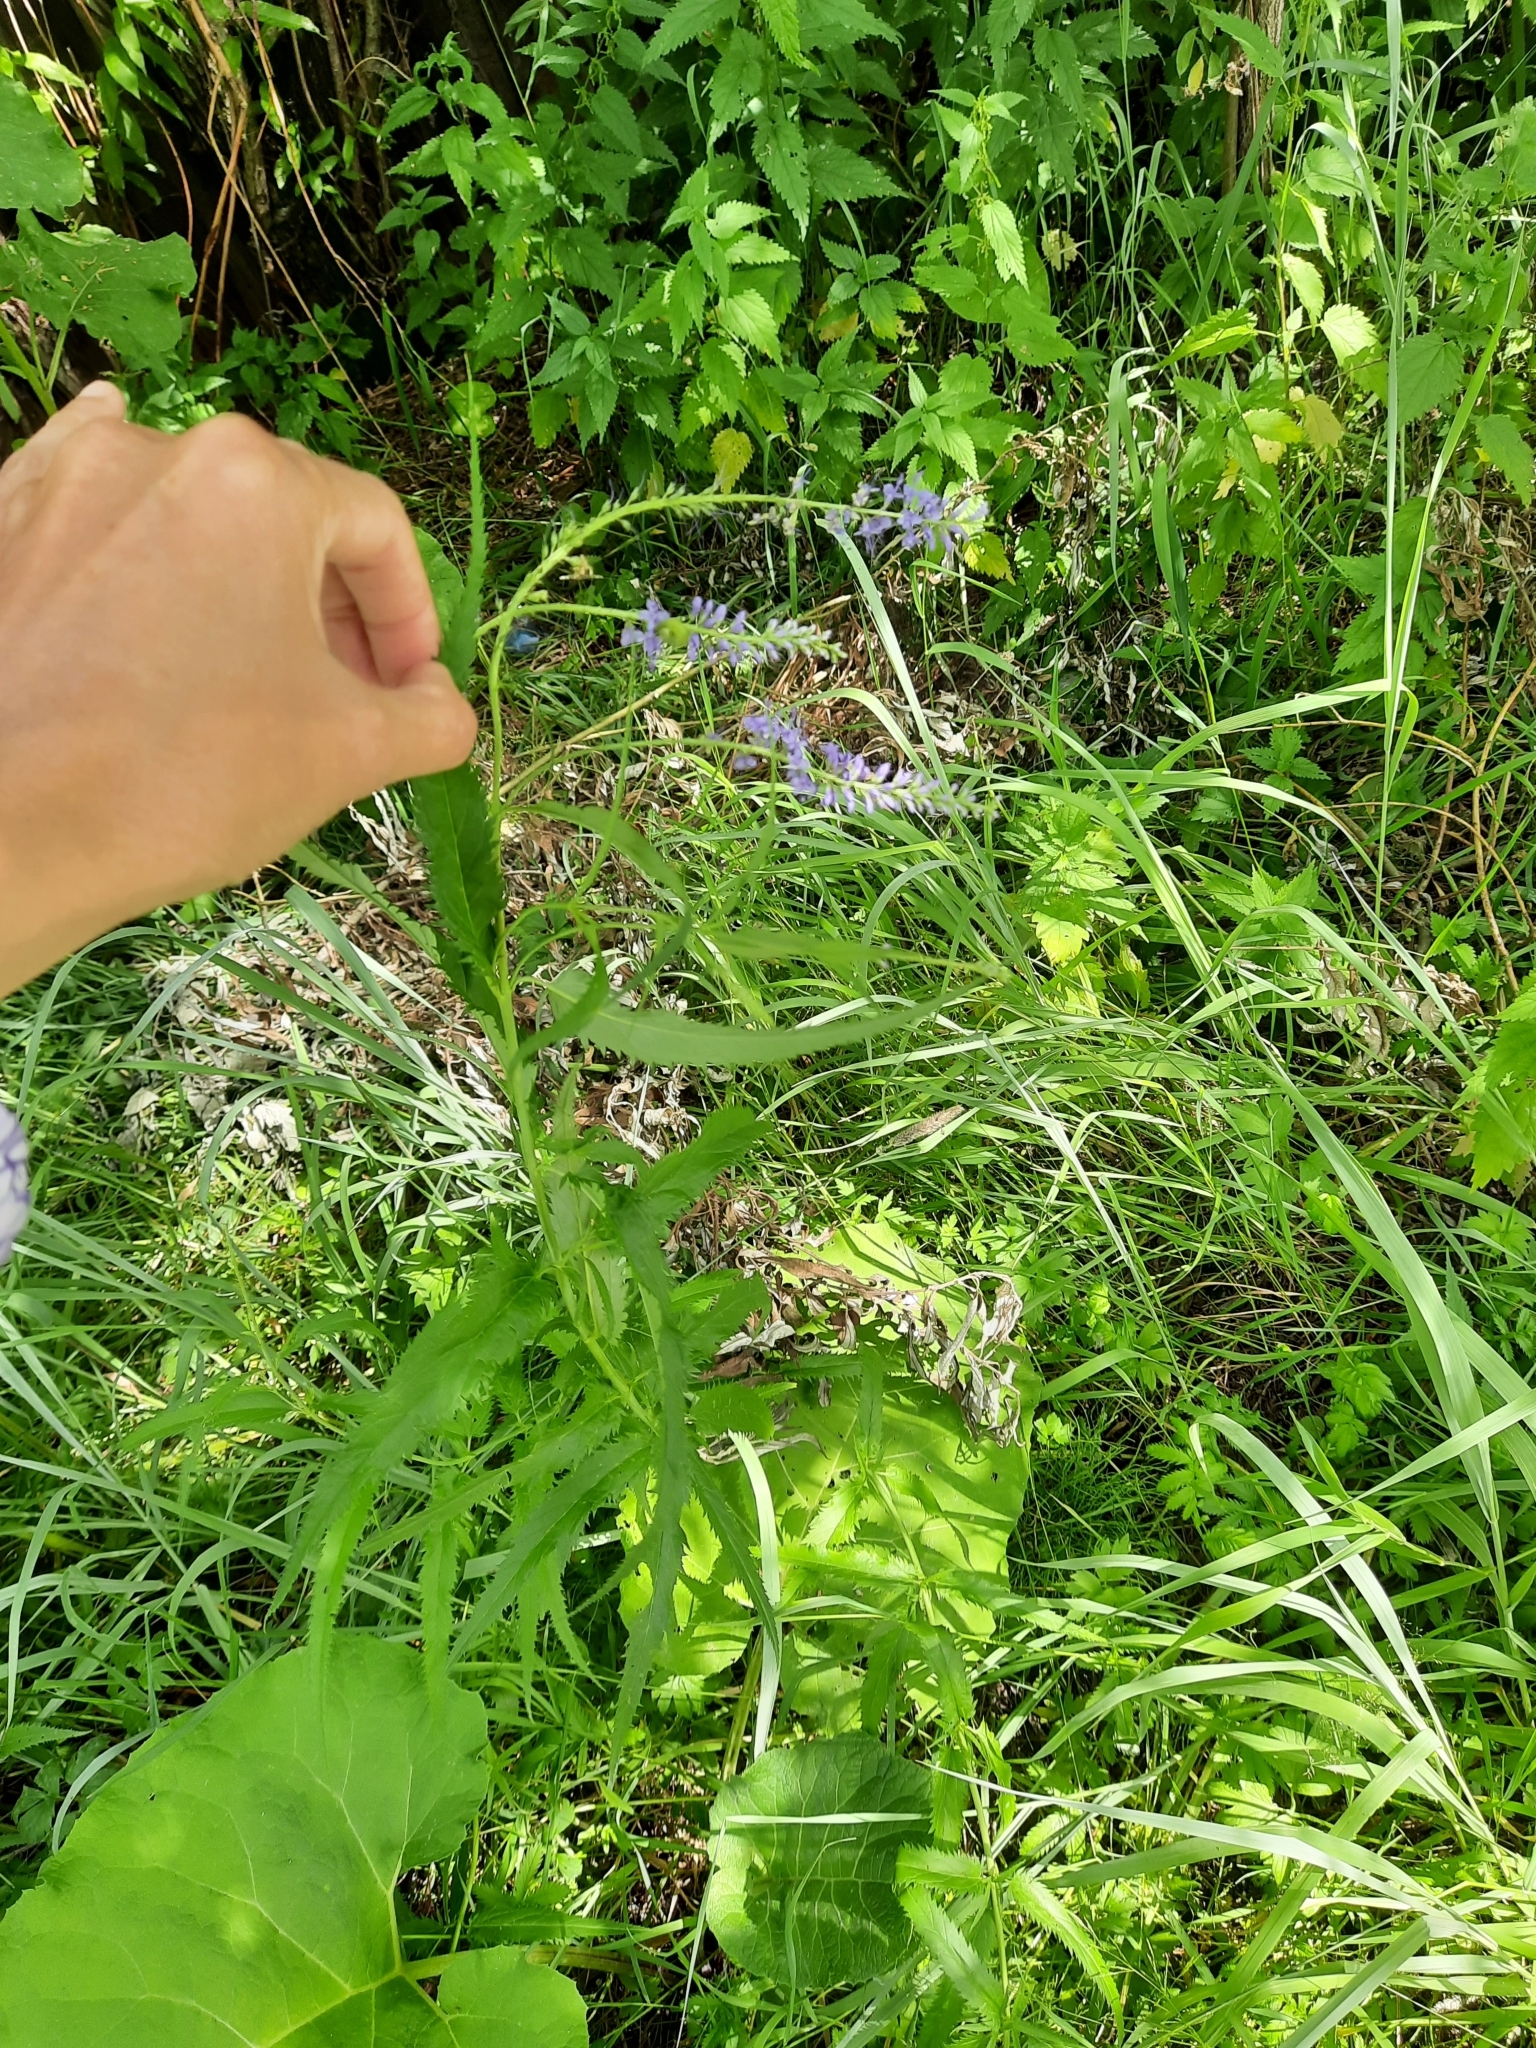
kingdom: Plantae
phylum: Tracheophyta
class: Magnoliopsida
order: Lamiales
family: Plantaginaceae
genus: Veronica
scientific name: Veronica longifolia
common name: Garden speedwell
